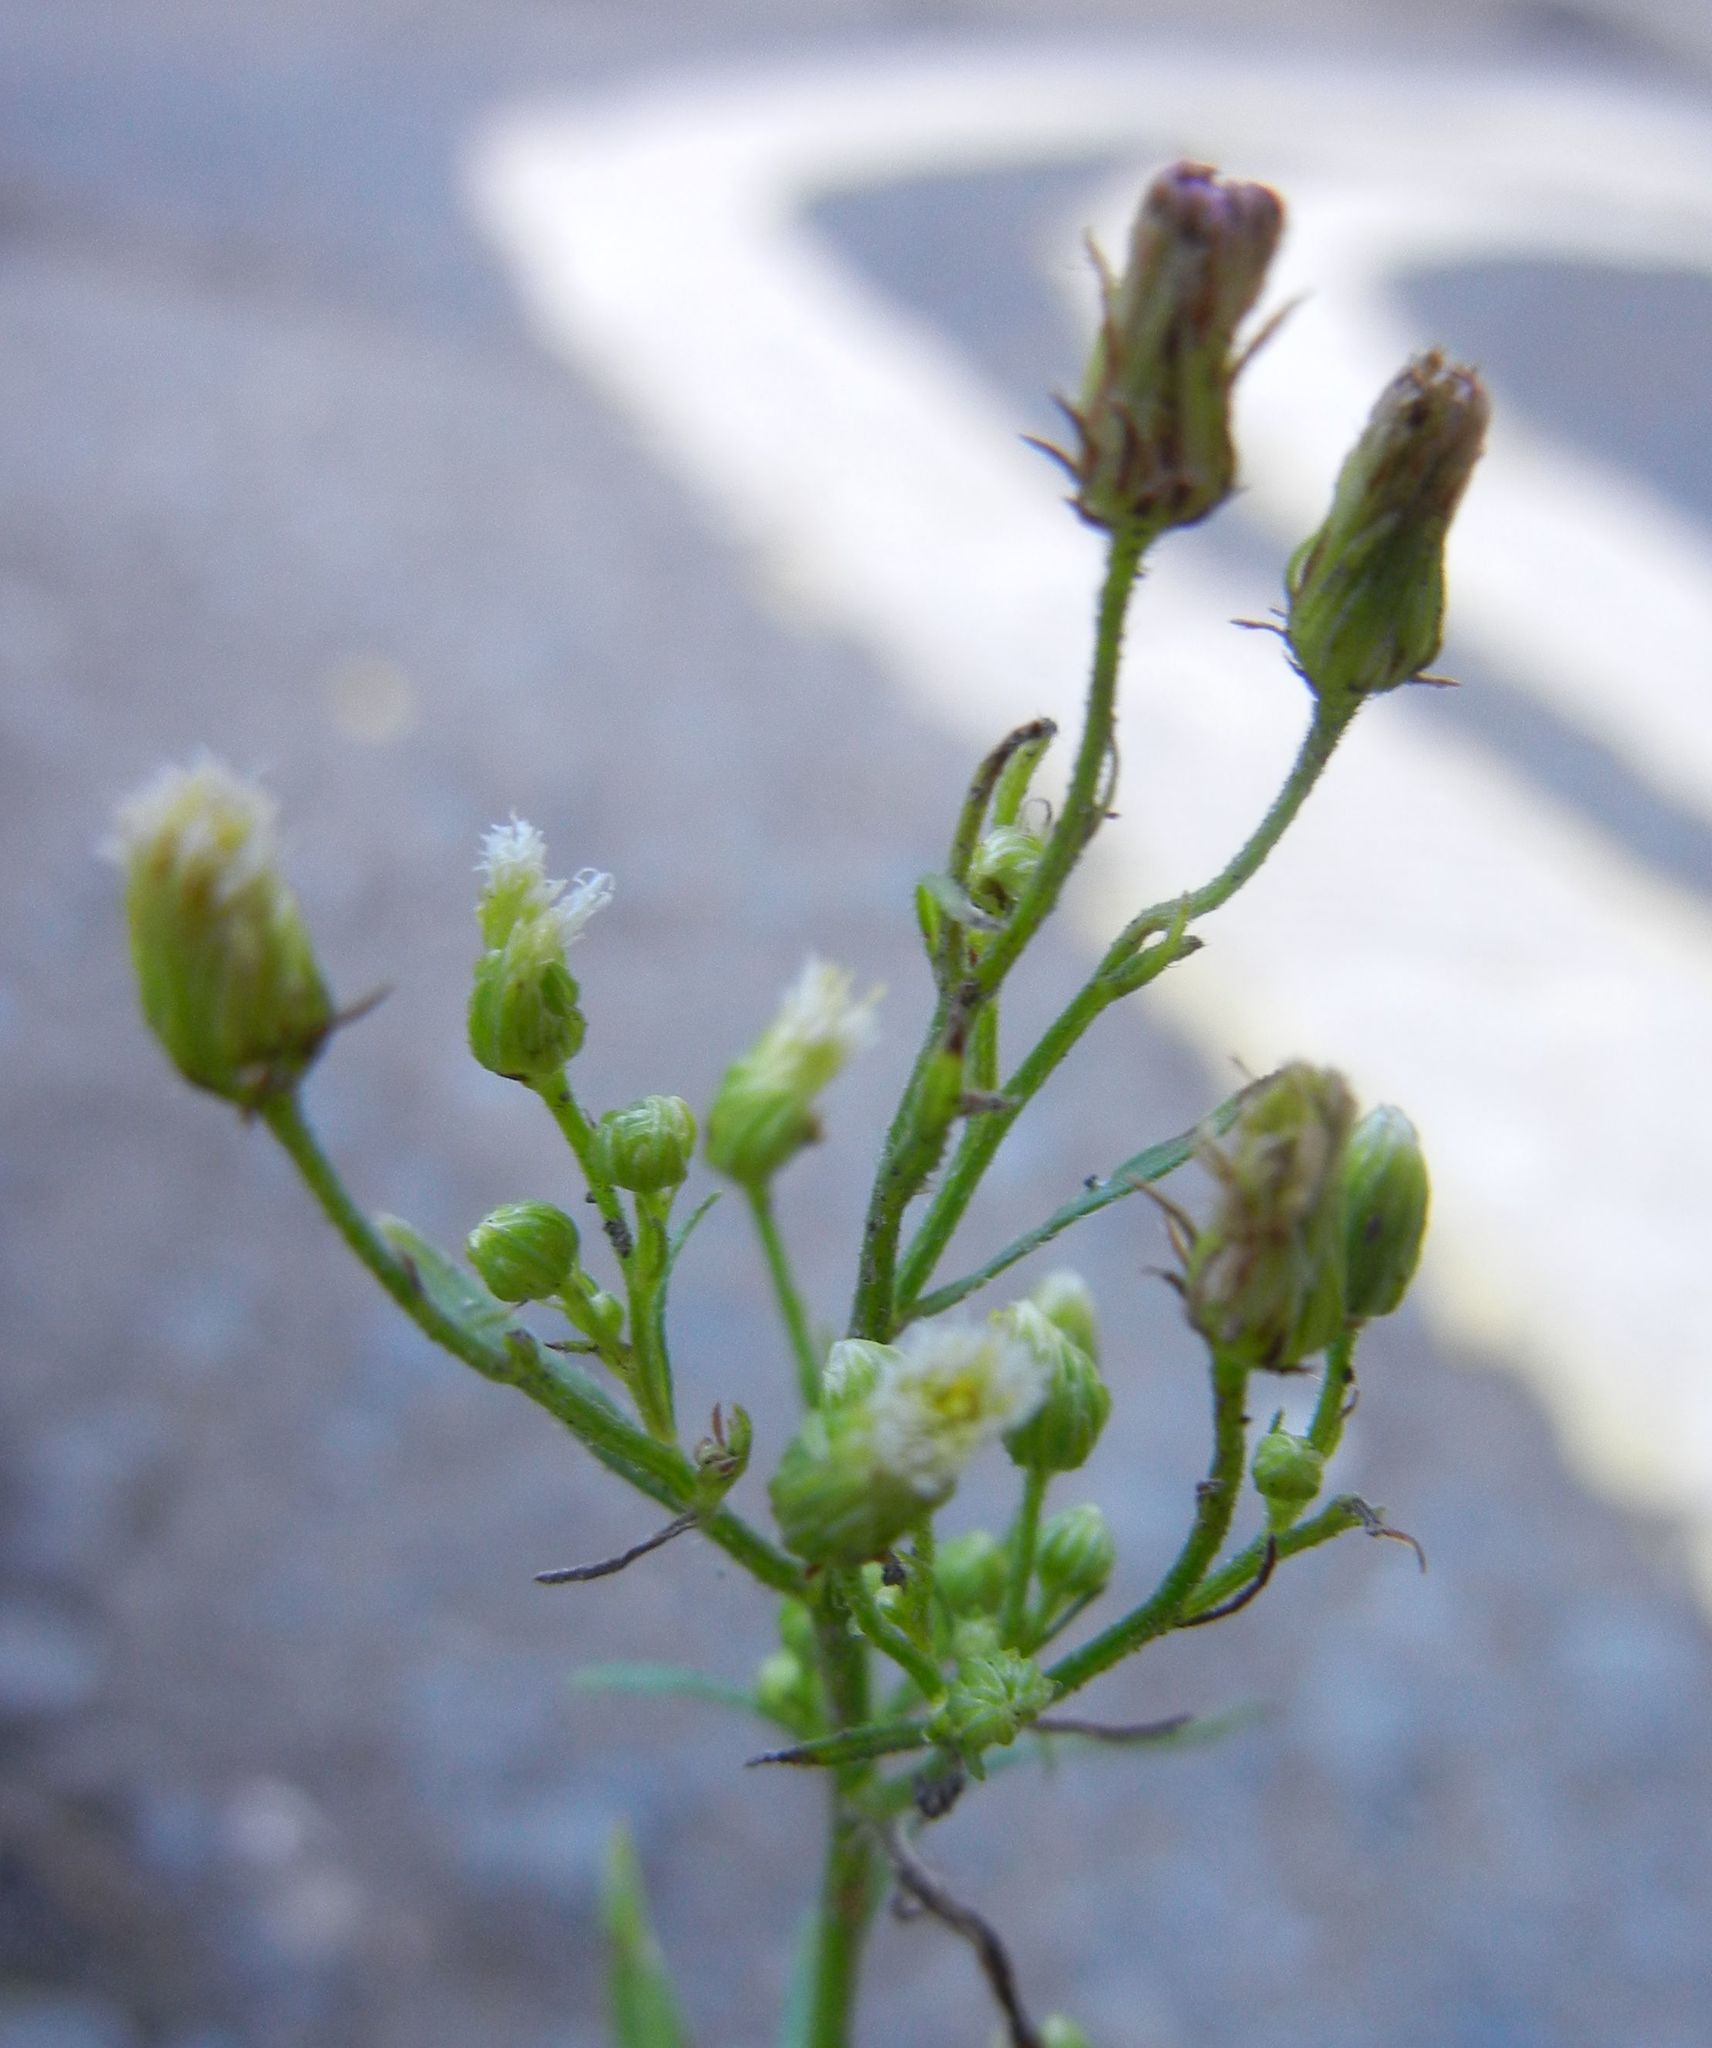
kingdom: Plantae
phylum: Tracheophyta
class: Magnoliopsida
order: Asterales
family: Asteraceae
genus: Erigeron
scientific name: Erigeron canadensis
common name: Canadian fleabane
